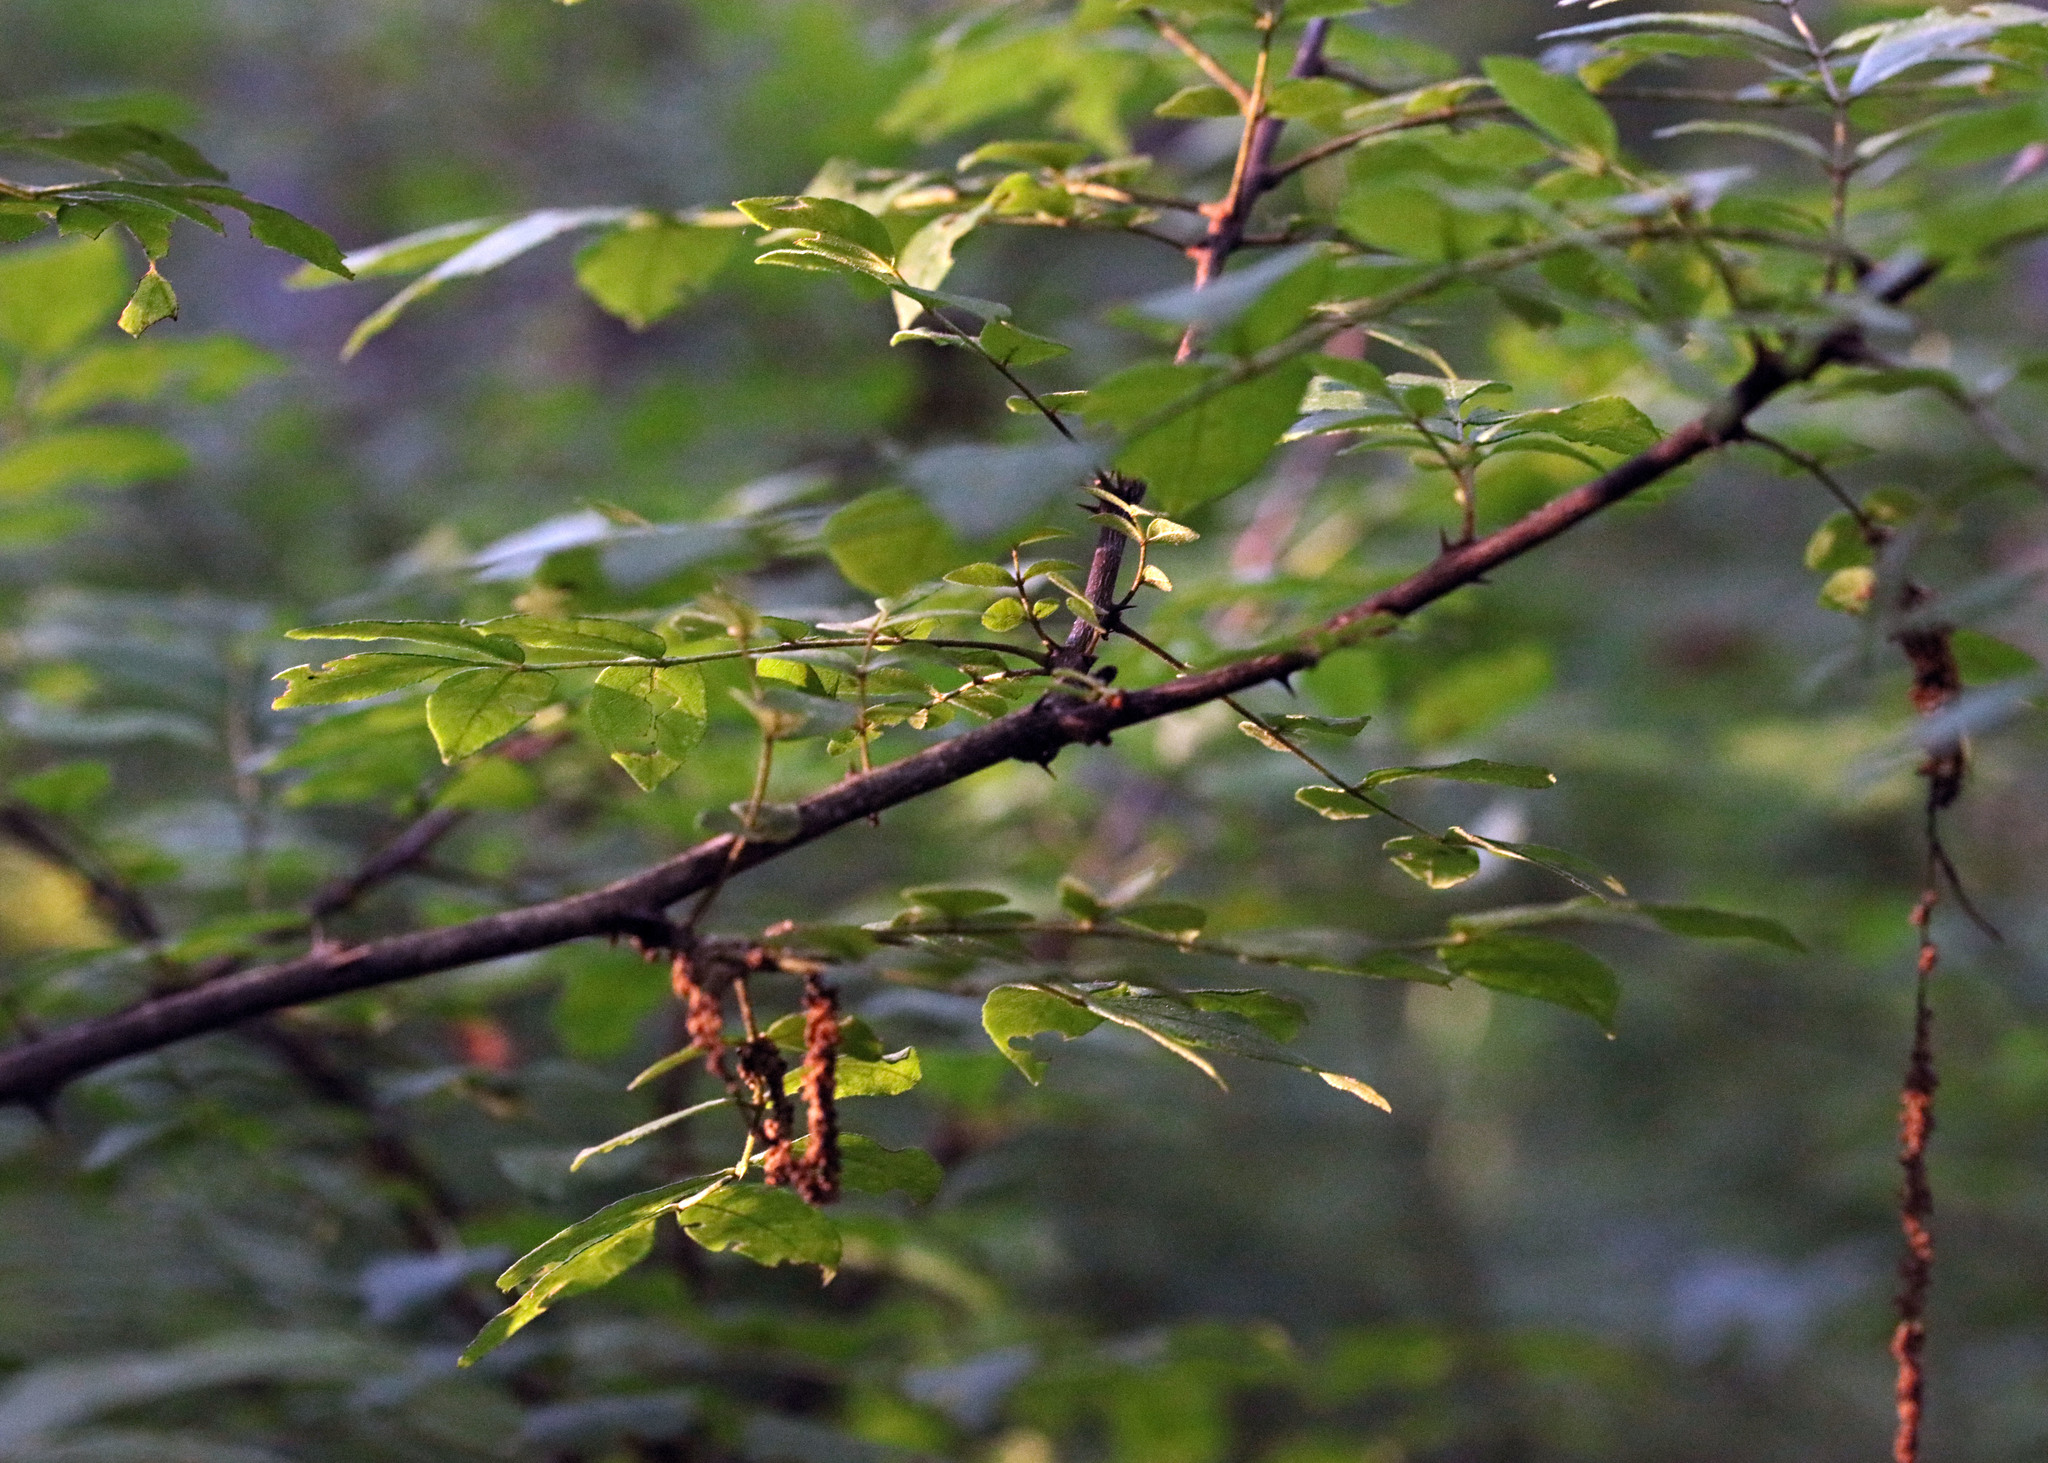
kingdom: Plantae
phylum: Tracheophyta
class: Magnoliopsida
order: Sapindales
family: Rutaceae
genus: Zanthoxylum
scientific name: Zanthoxylum americanum
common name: Northern prickly-ash
